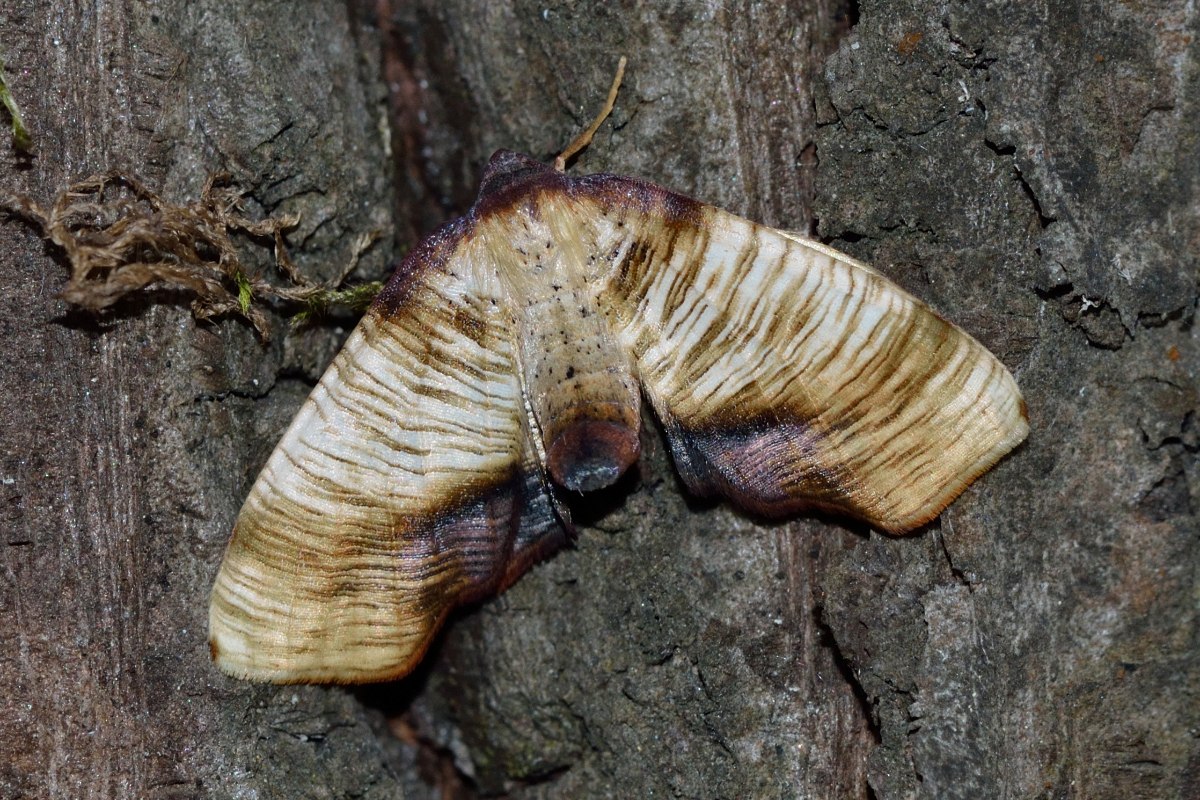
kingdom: Animalia
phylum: Arthropoda
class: Insecta
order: Lepidoptera
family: Geometridae
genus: Plagodis
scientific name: Plagodis dolabraria
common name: Scorched wing
